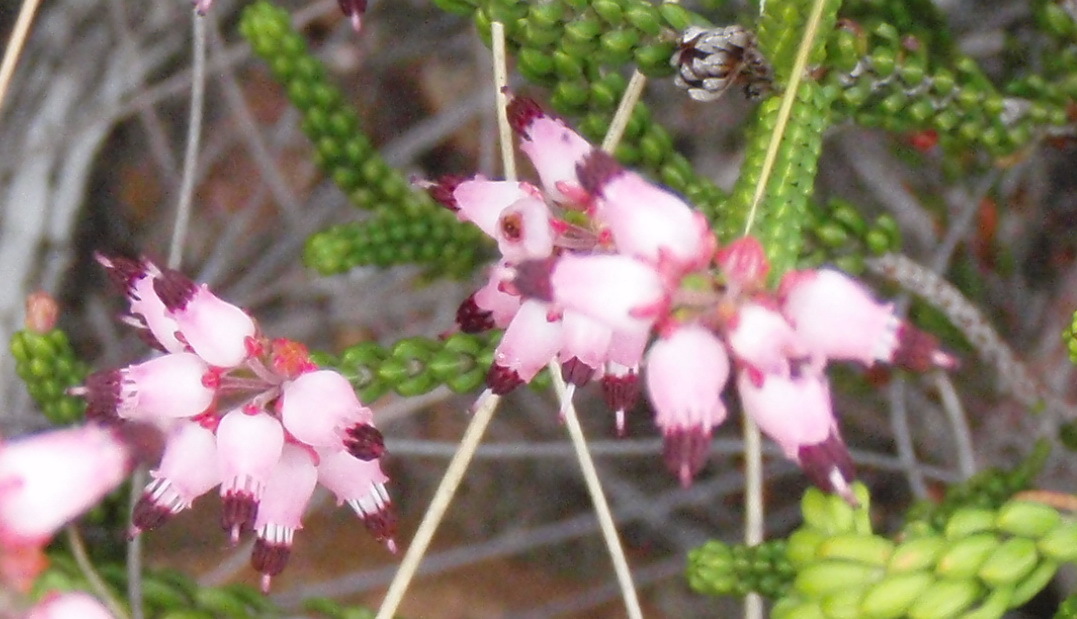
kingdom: Plantae
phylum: Tracheophyta
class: Magnoliopsida
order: Ericales
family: Ericaceae
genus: Erica
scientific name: Erica petraea
